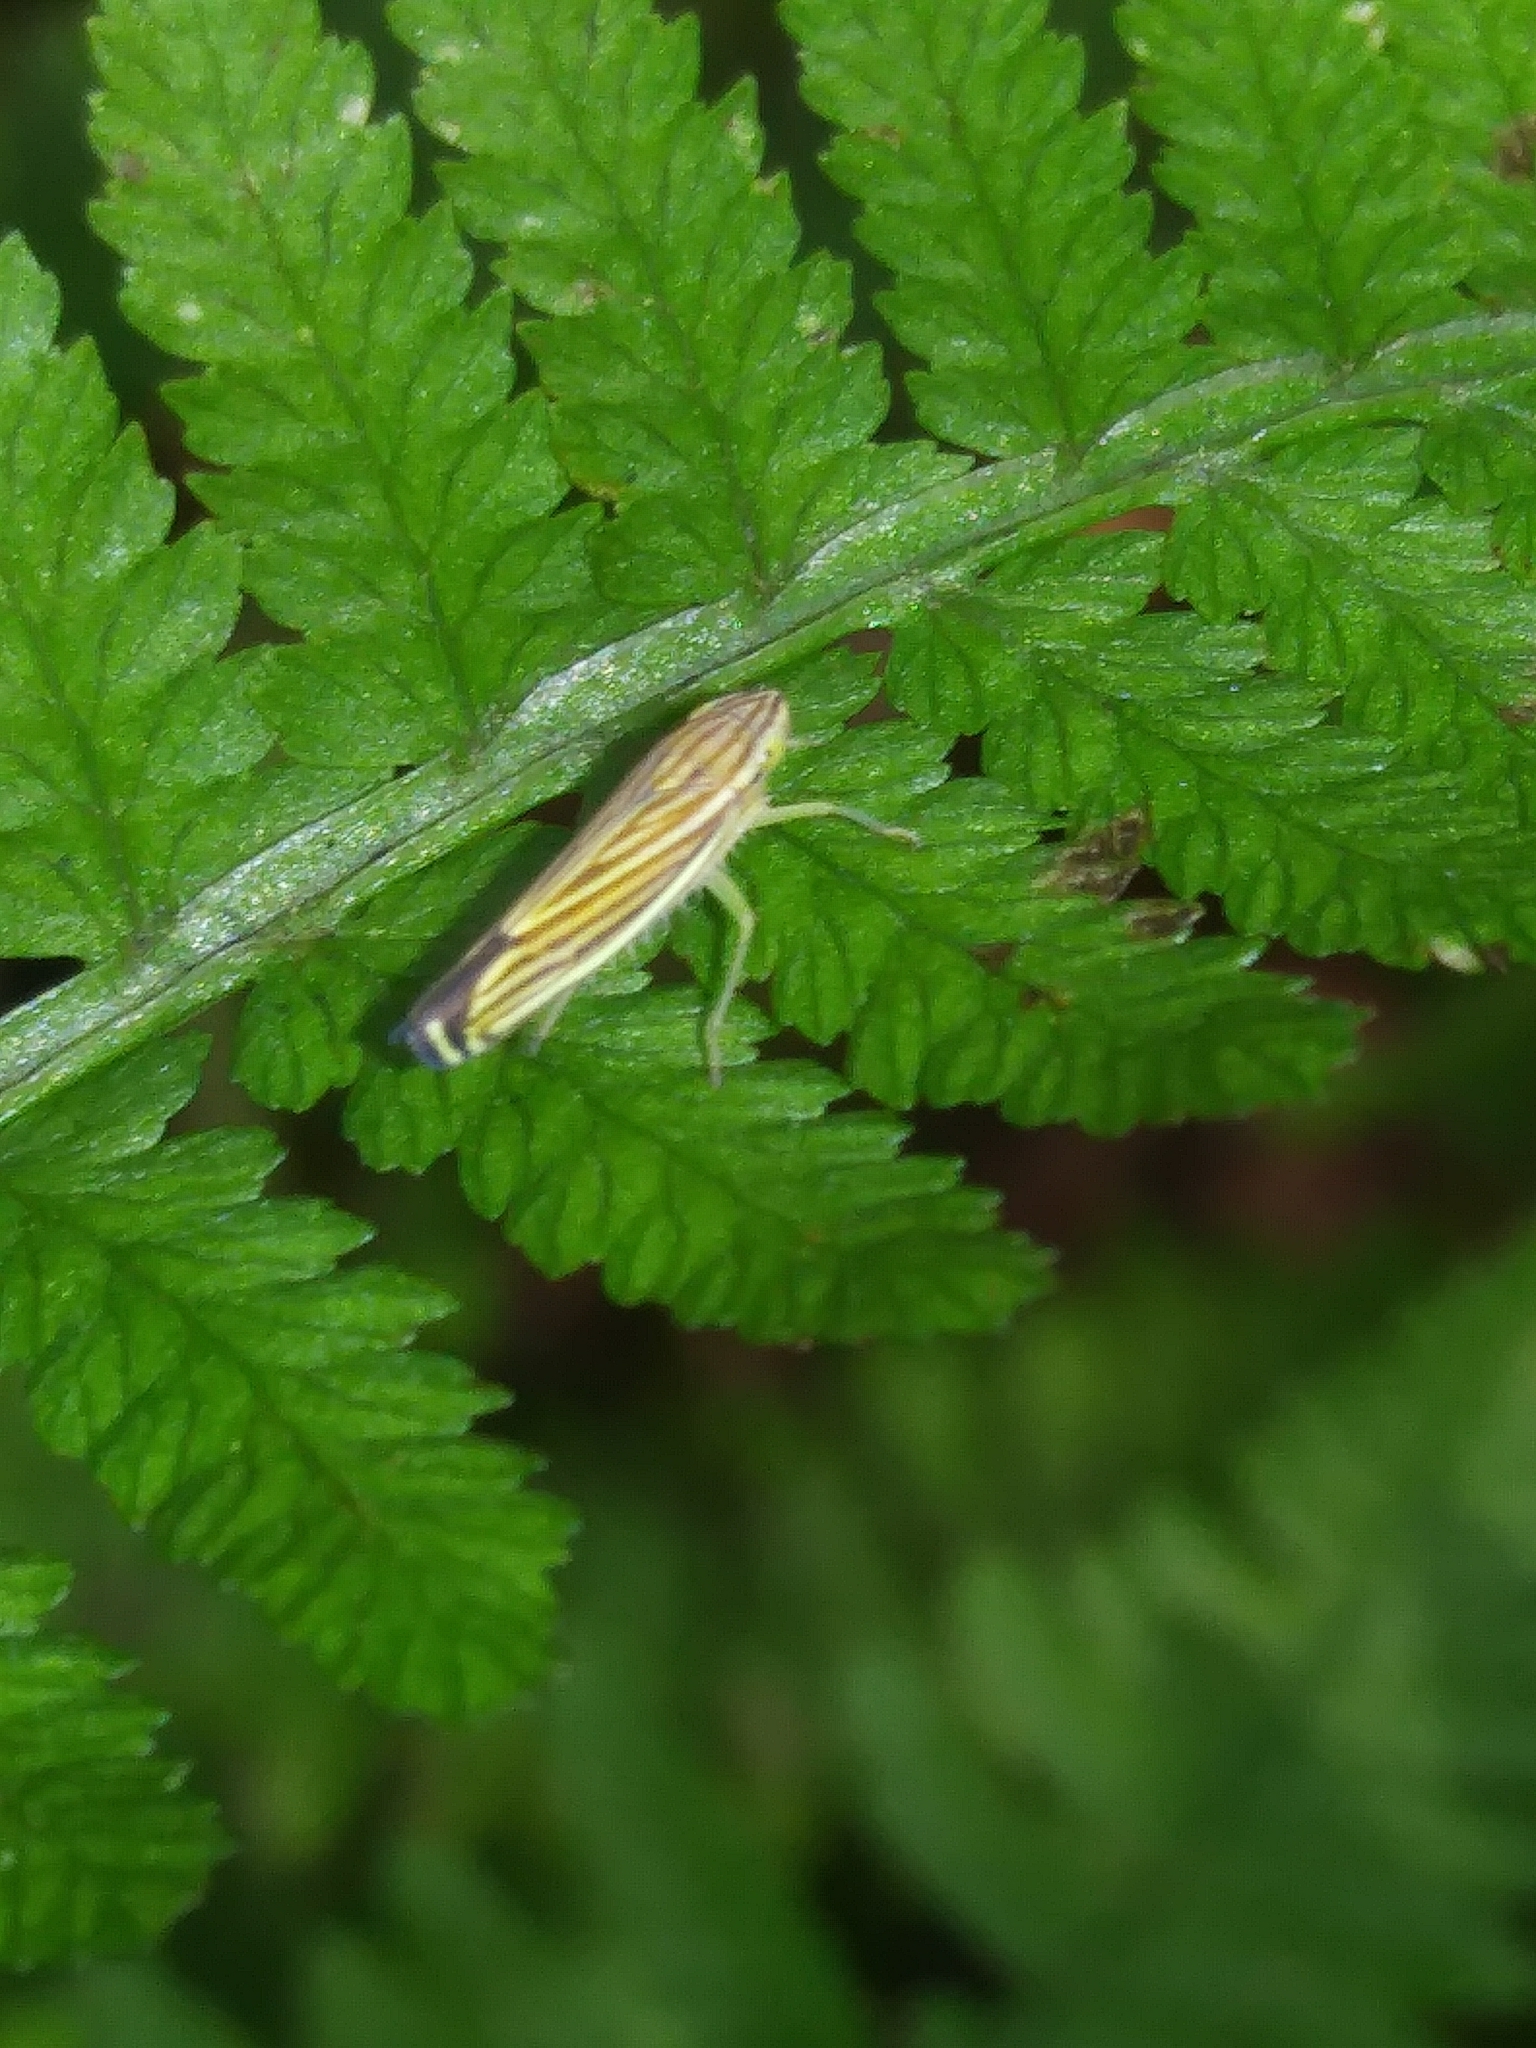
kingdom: Animalia
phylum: Arthropoda
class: Insecta
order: Hemiptera
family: Cicadellidae
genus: Sibovia
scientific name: Sibovia occatoria
